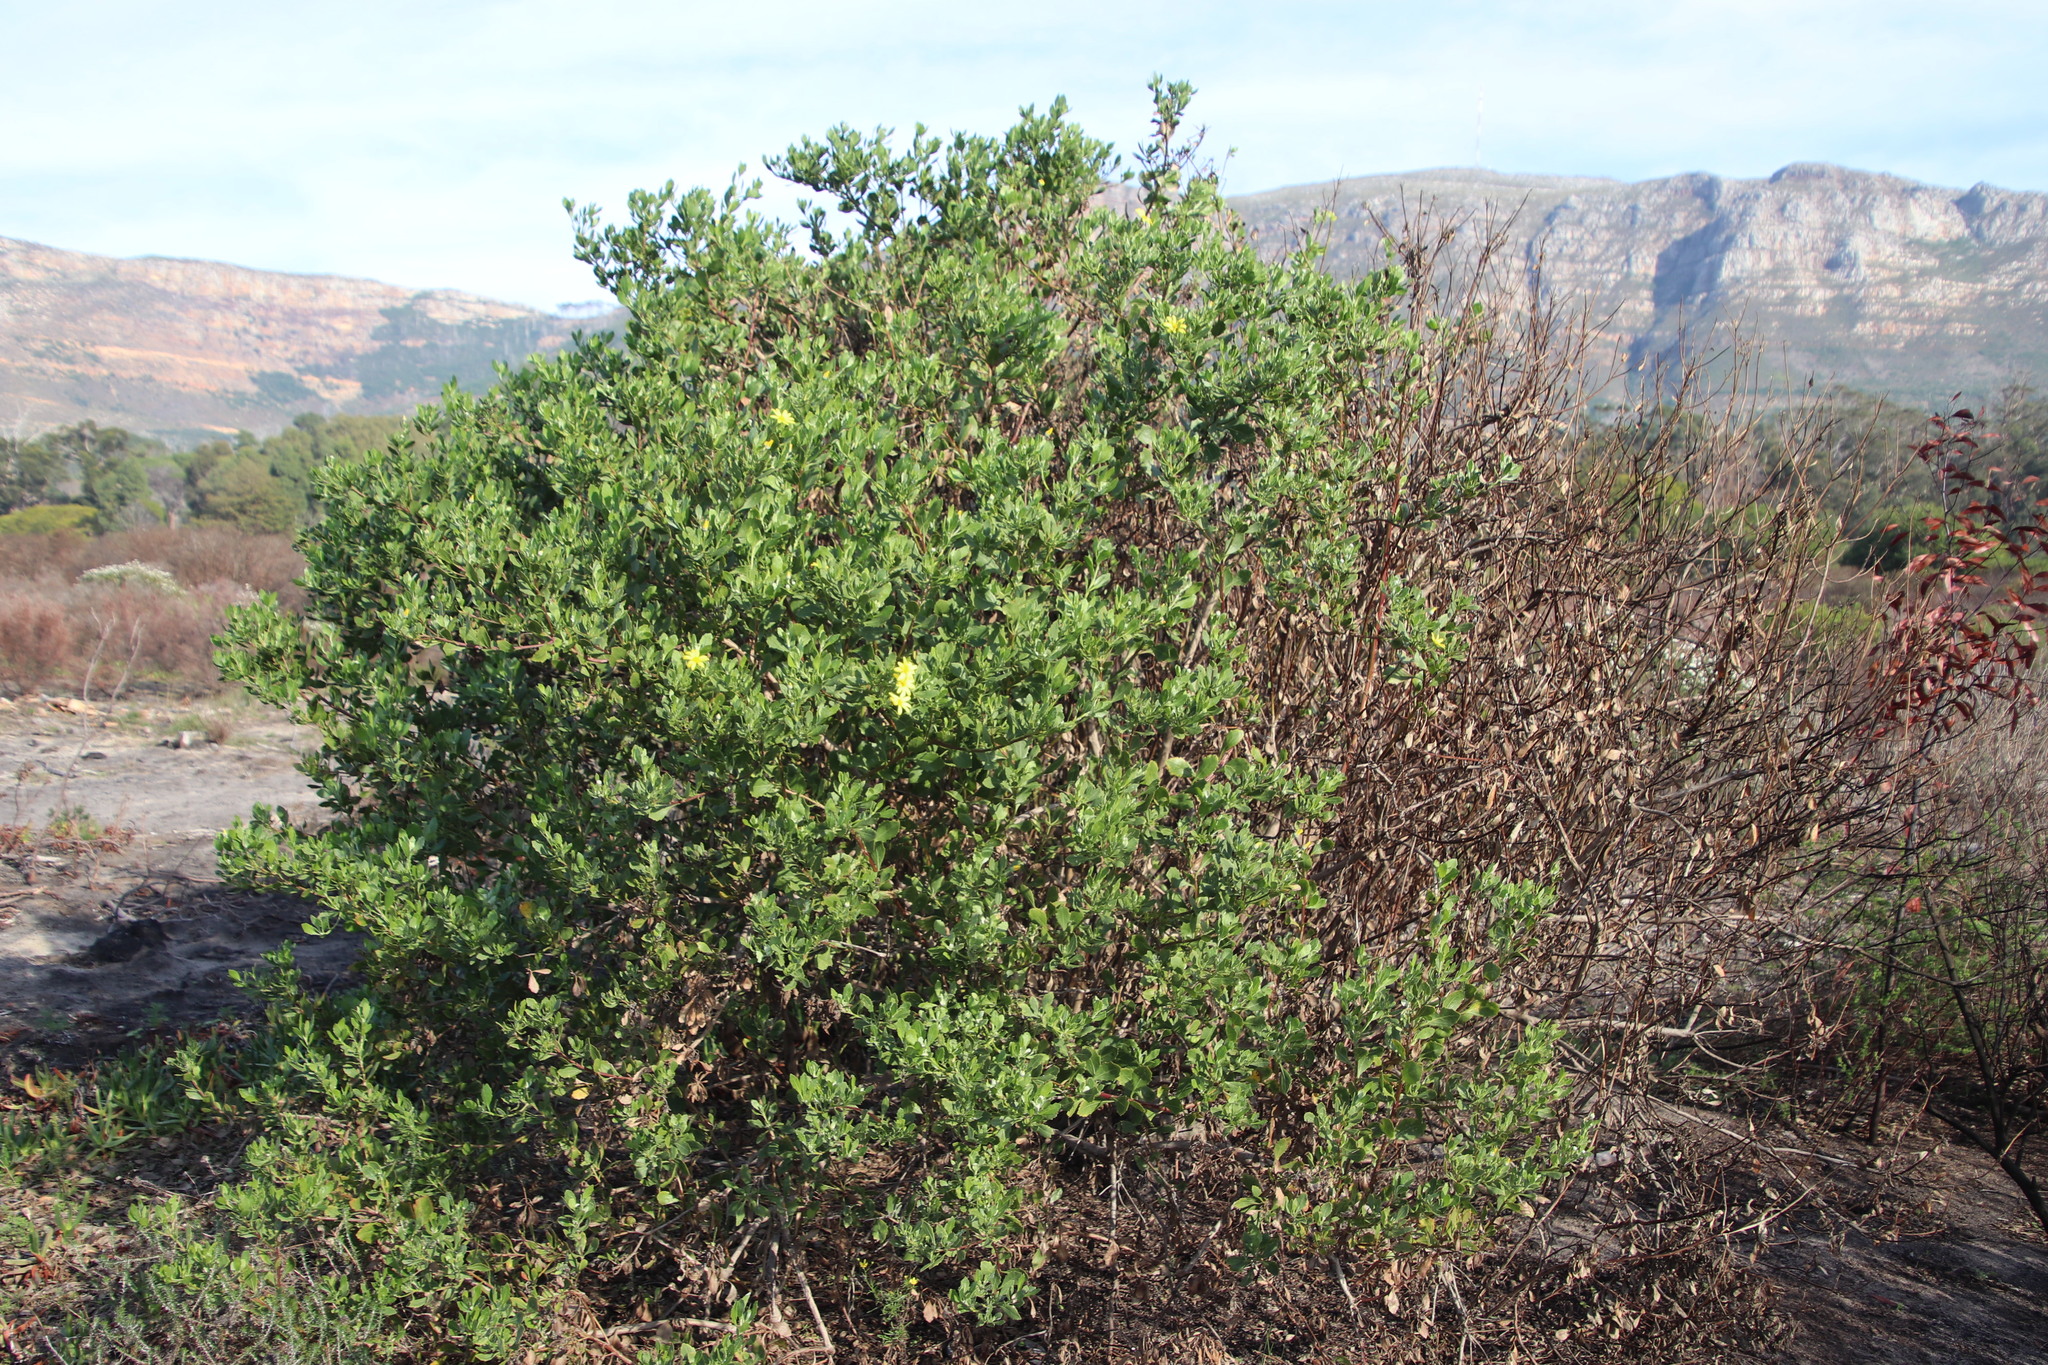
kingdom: Plantae
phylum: Tracheophyta
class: Magnoliopsida
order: Asterales
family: Asteraceae
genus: Osteospermum
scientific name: Osteospermum moniliferum
